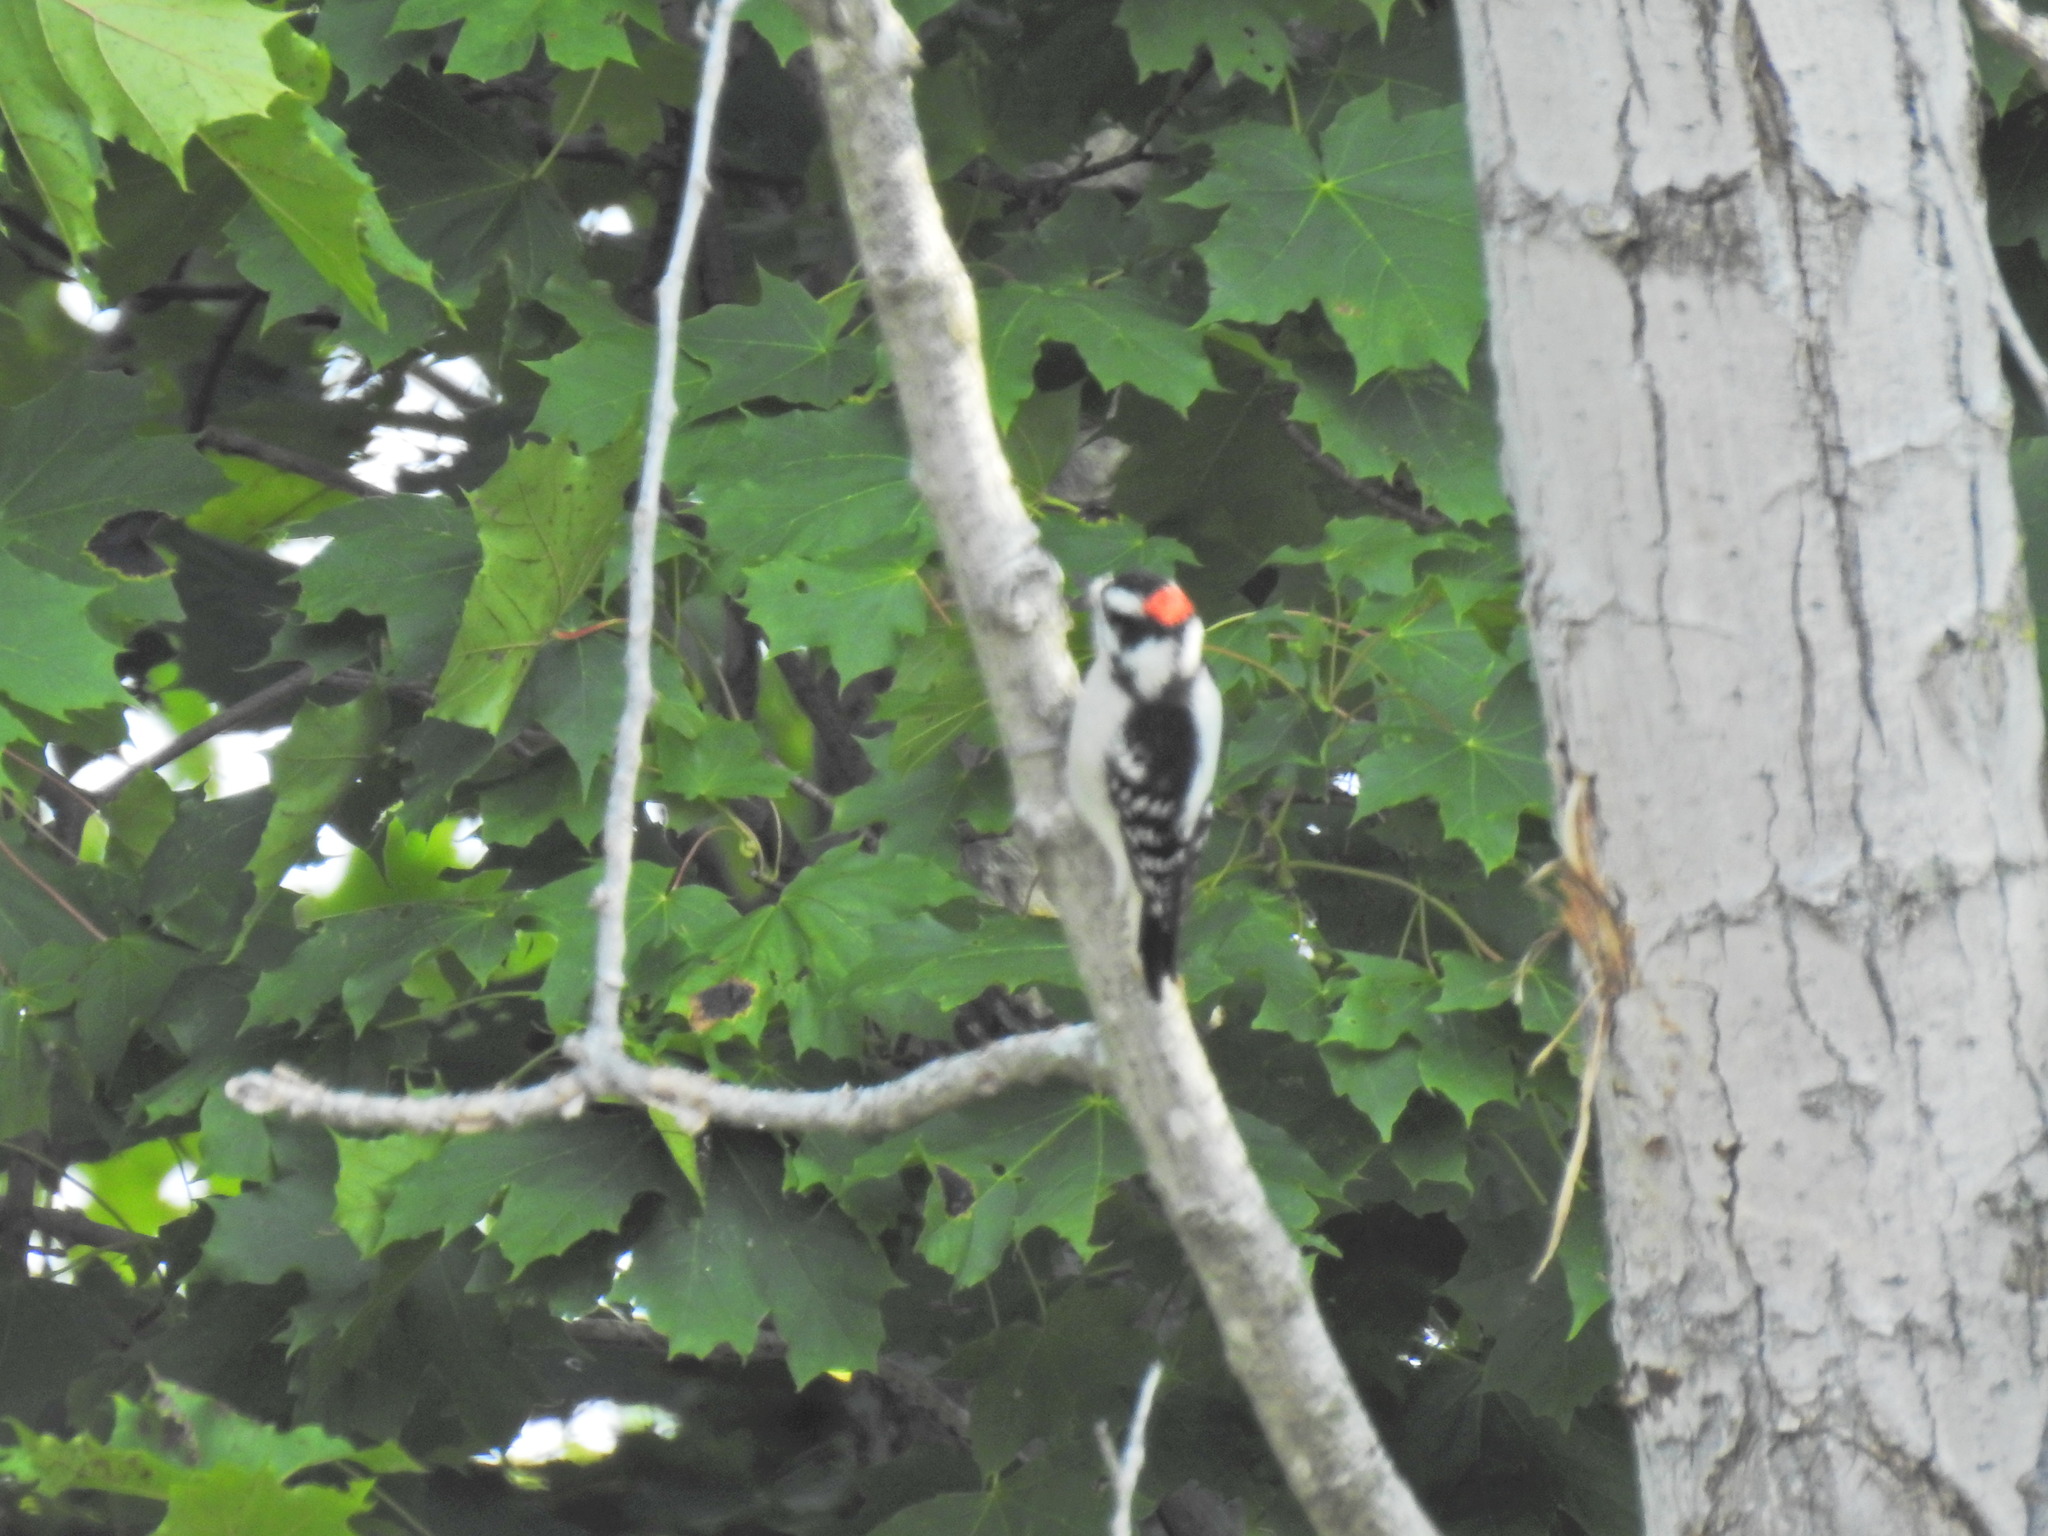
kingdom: Animalia
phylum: Chordata
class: Aves
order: Piciformes
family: Picidae
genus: Dryobates
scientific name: Dryobates pubescens
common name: Downy woodpecker
